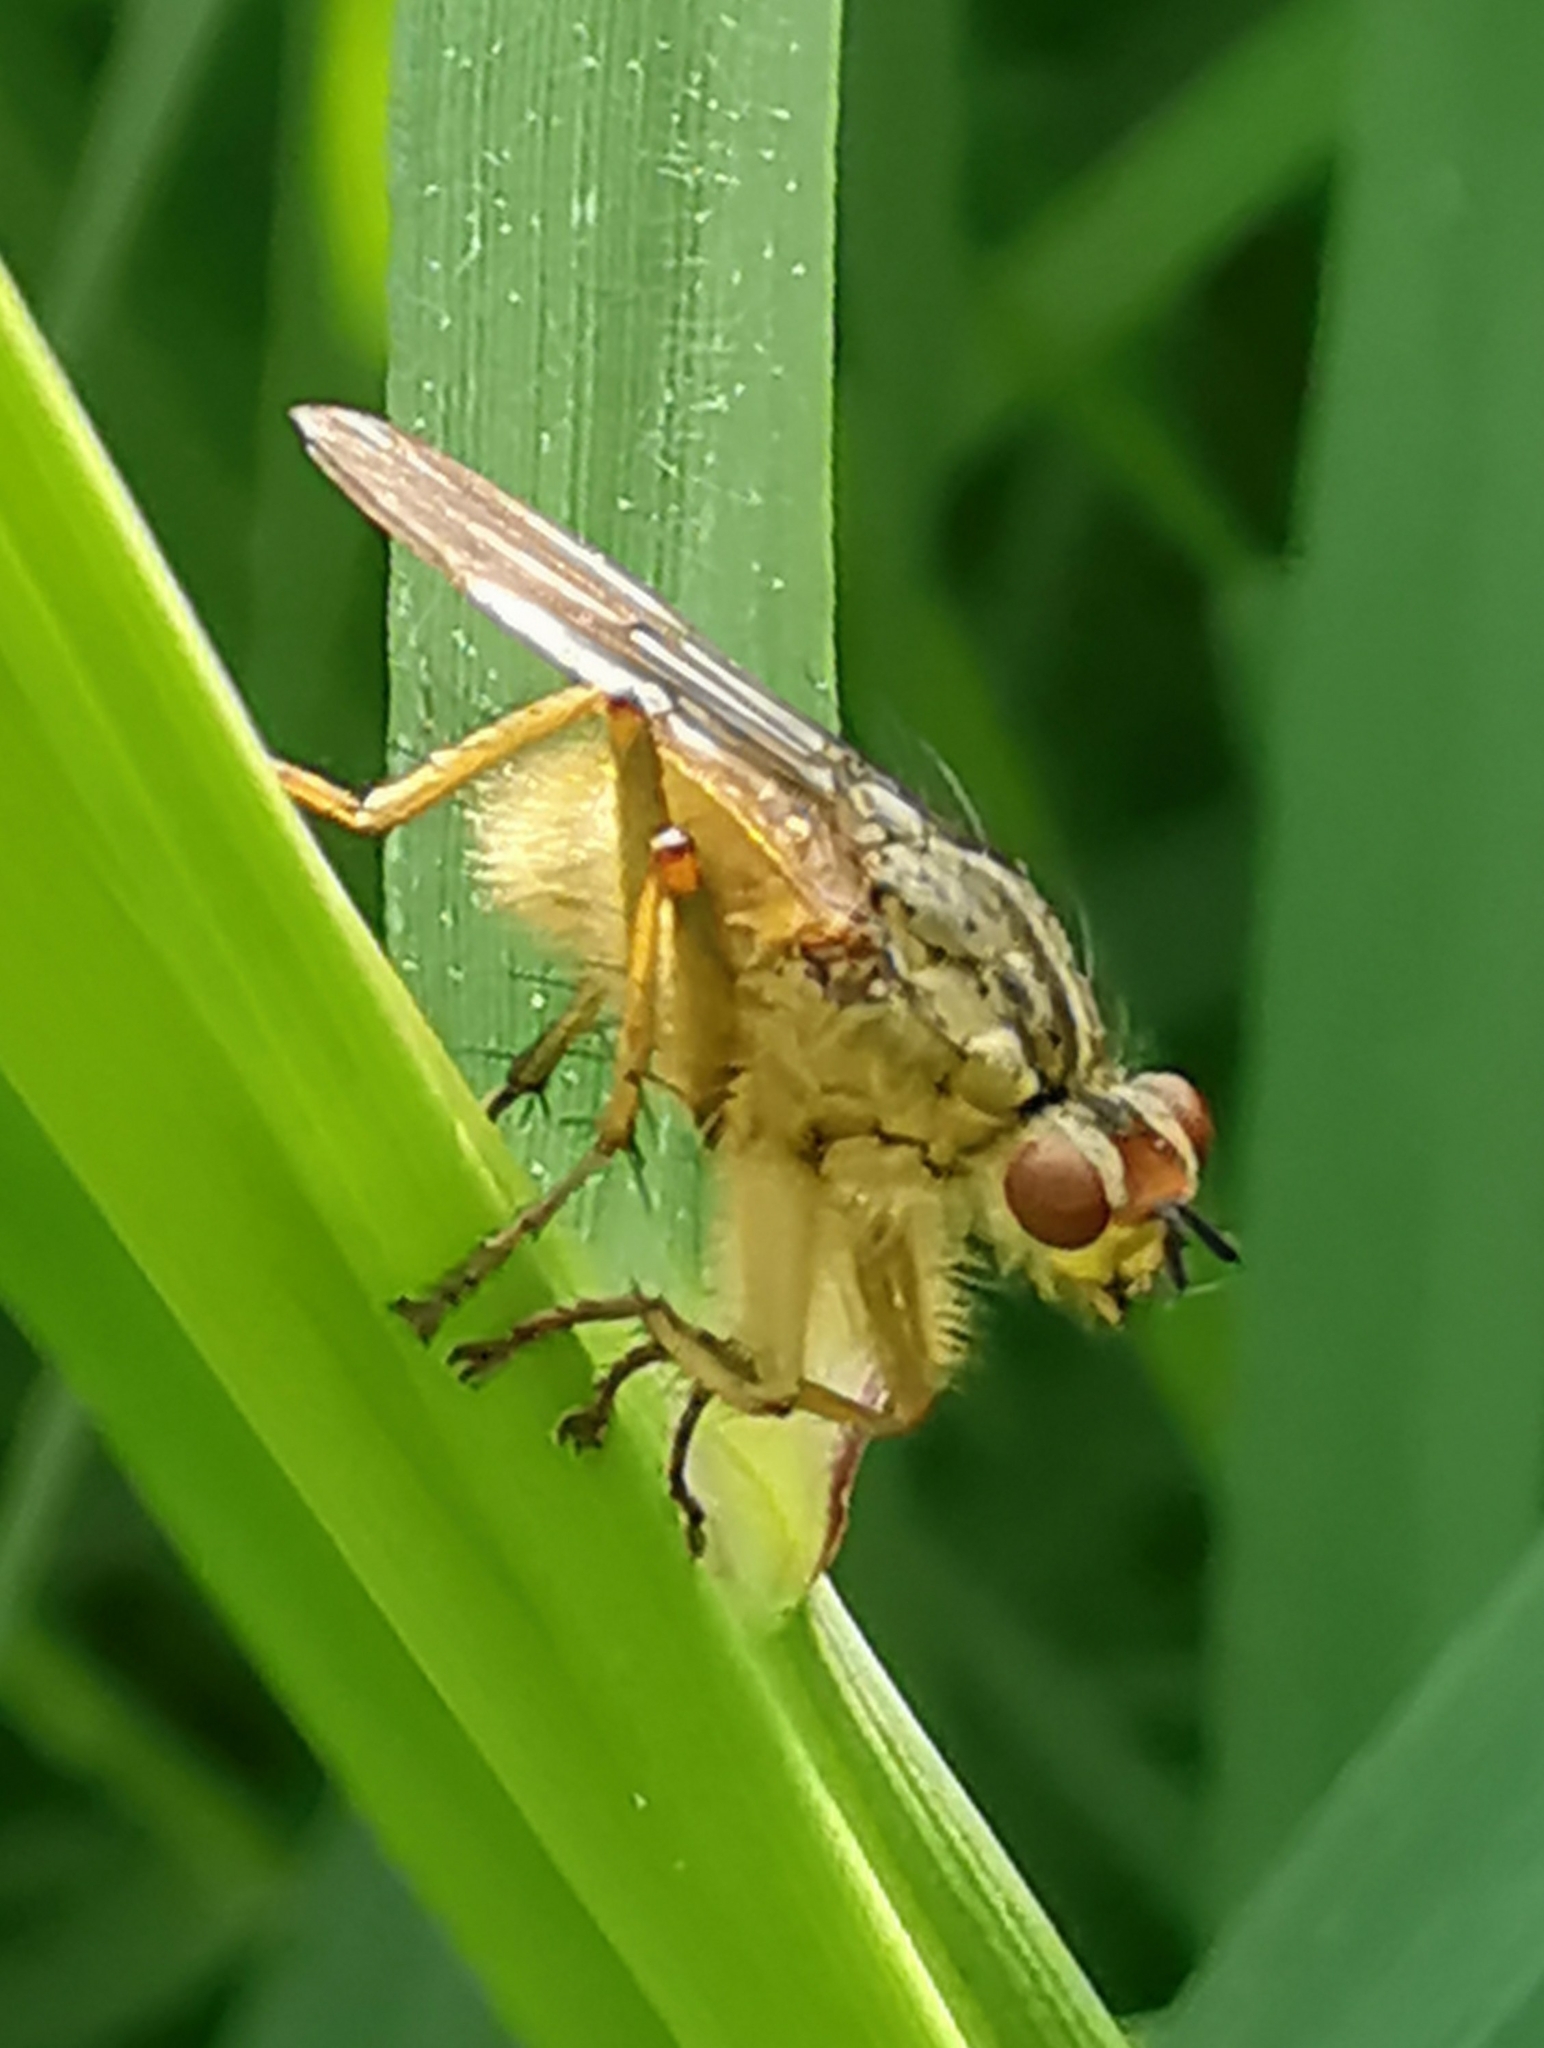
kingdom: Animalia
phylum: Arthropoda
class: Insecta
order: Diptera
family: Scathophagidae
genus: Scathophaga
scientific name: Scathophaga stercoraria
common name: Yellow dung fly
